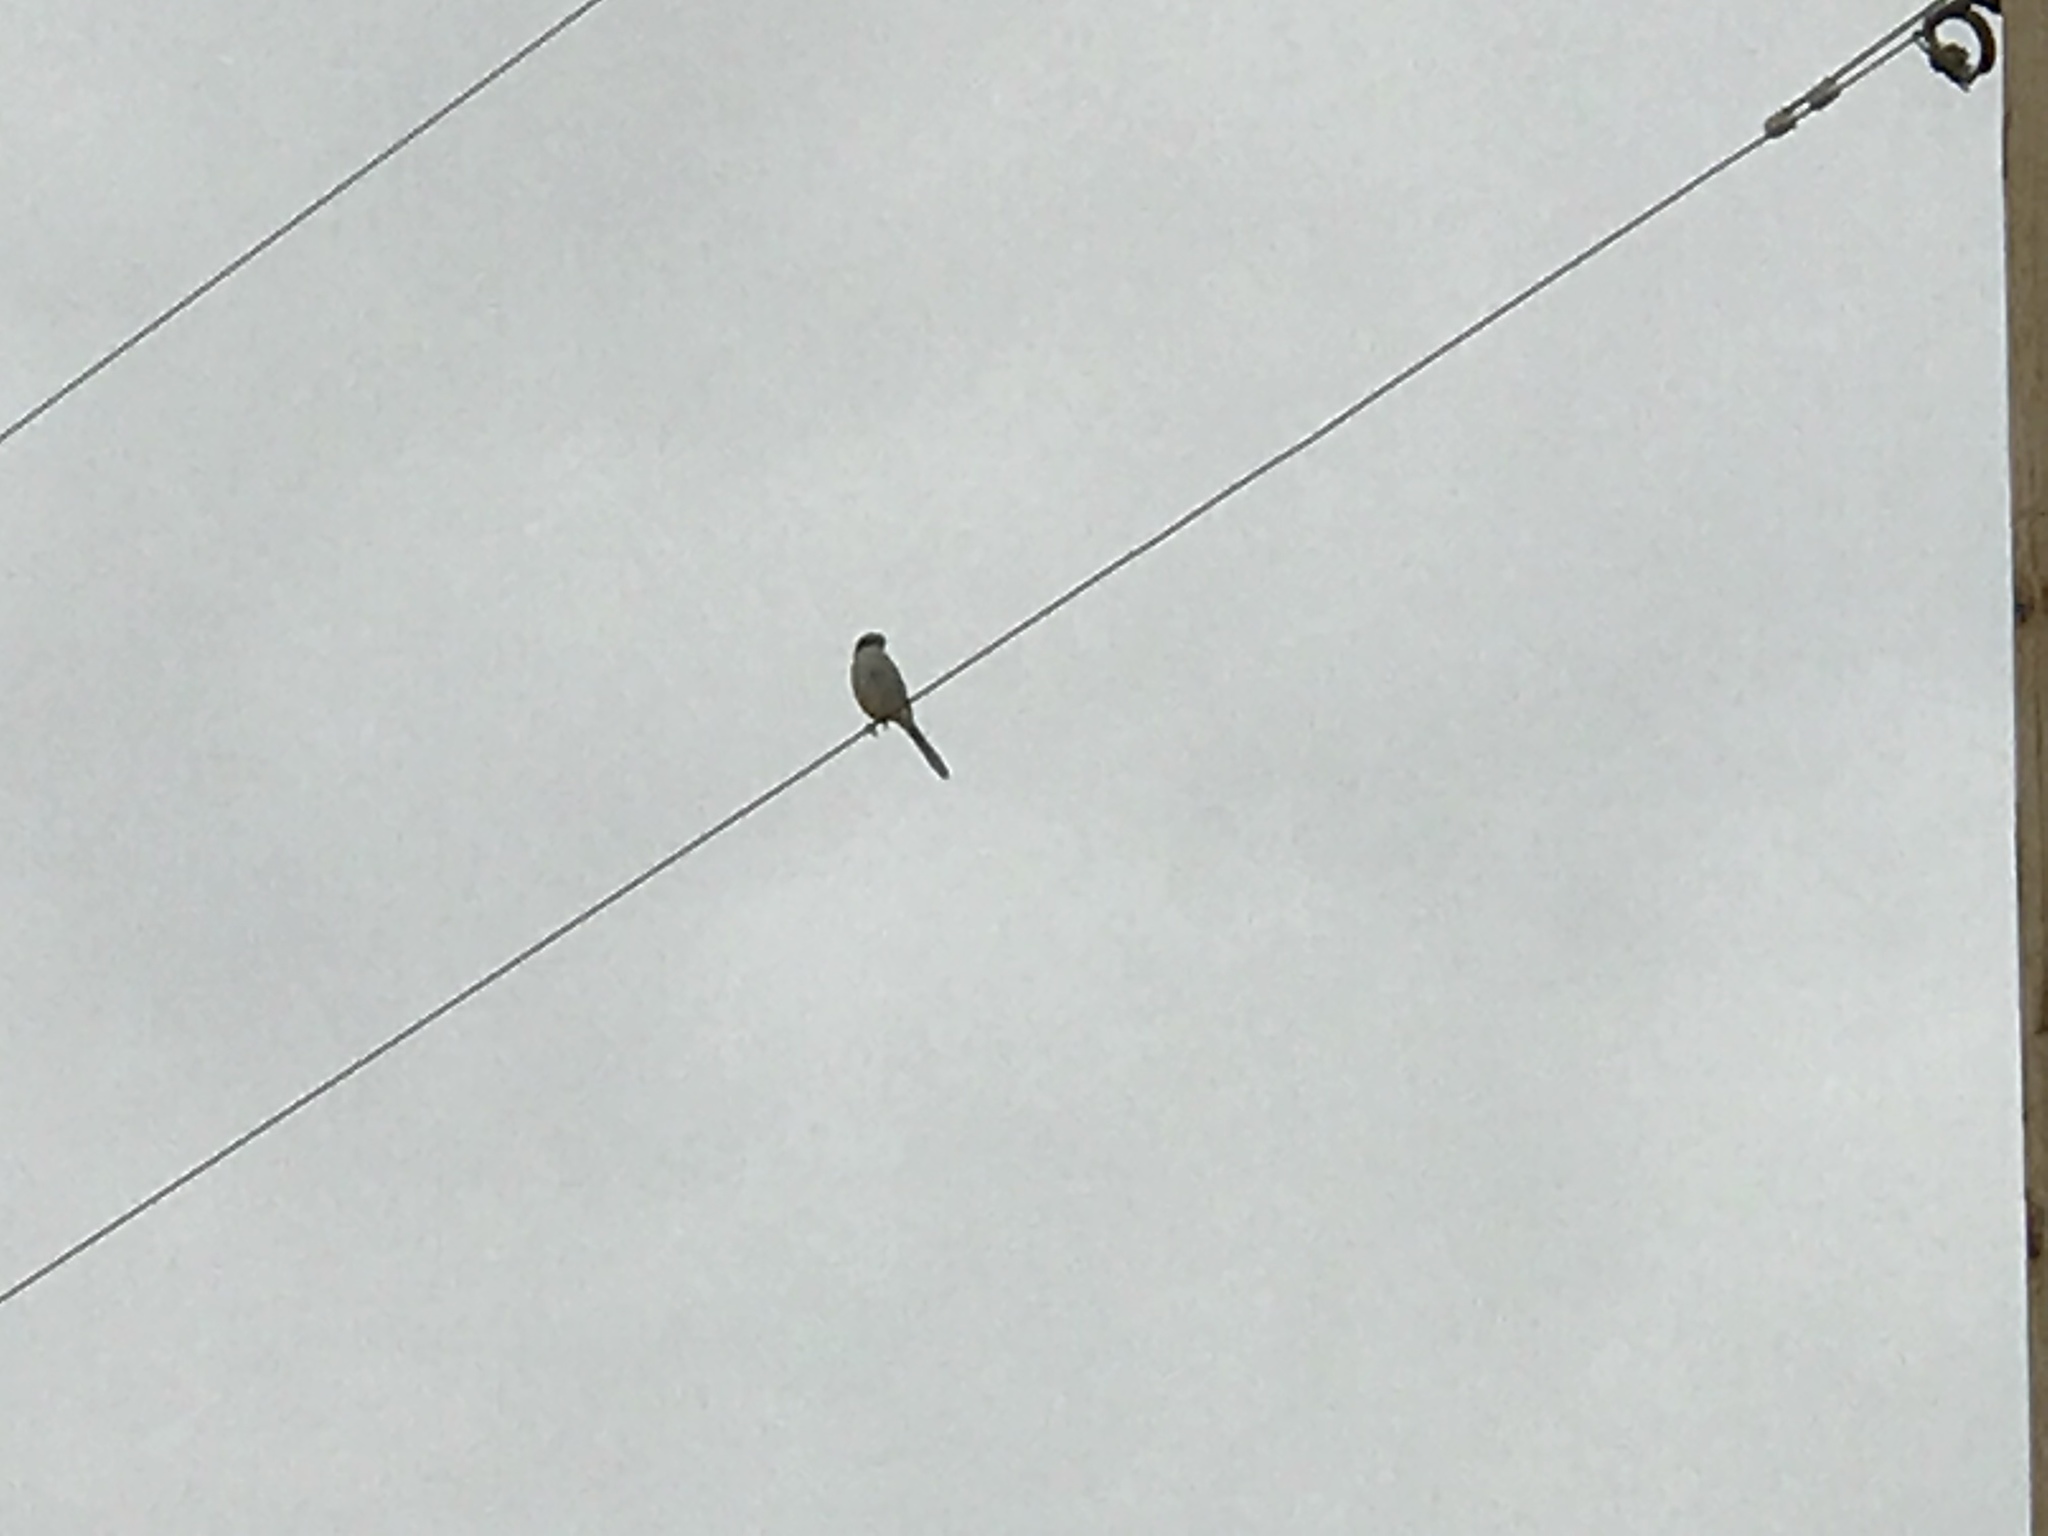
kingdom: Animalia
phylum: Chordata
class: Aves
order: Passeriformes
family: Laniidae
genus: Lanius
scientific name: Lanius ludovicianus
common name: Loggerhead shrike
